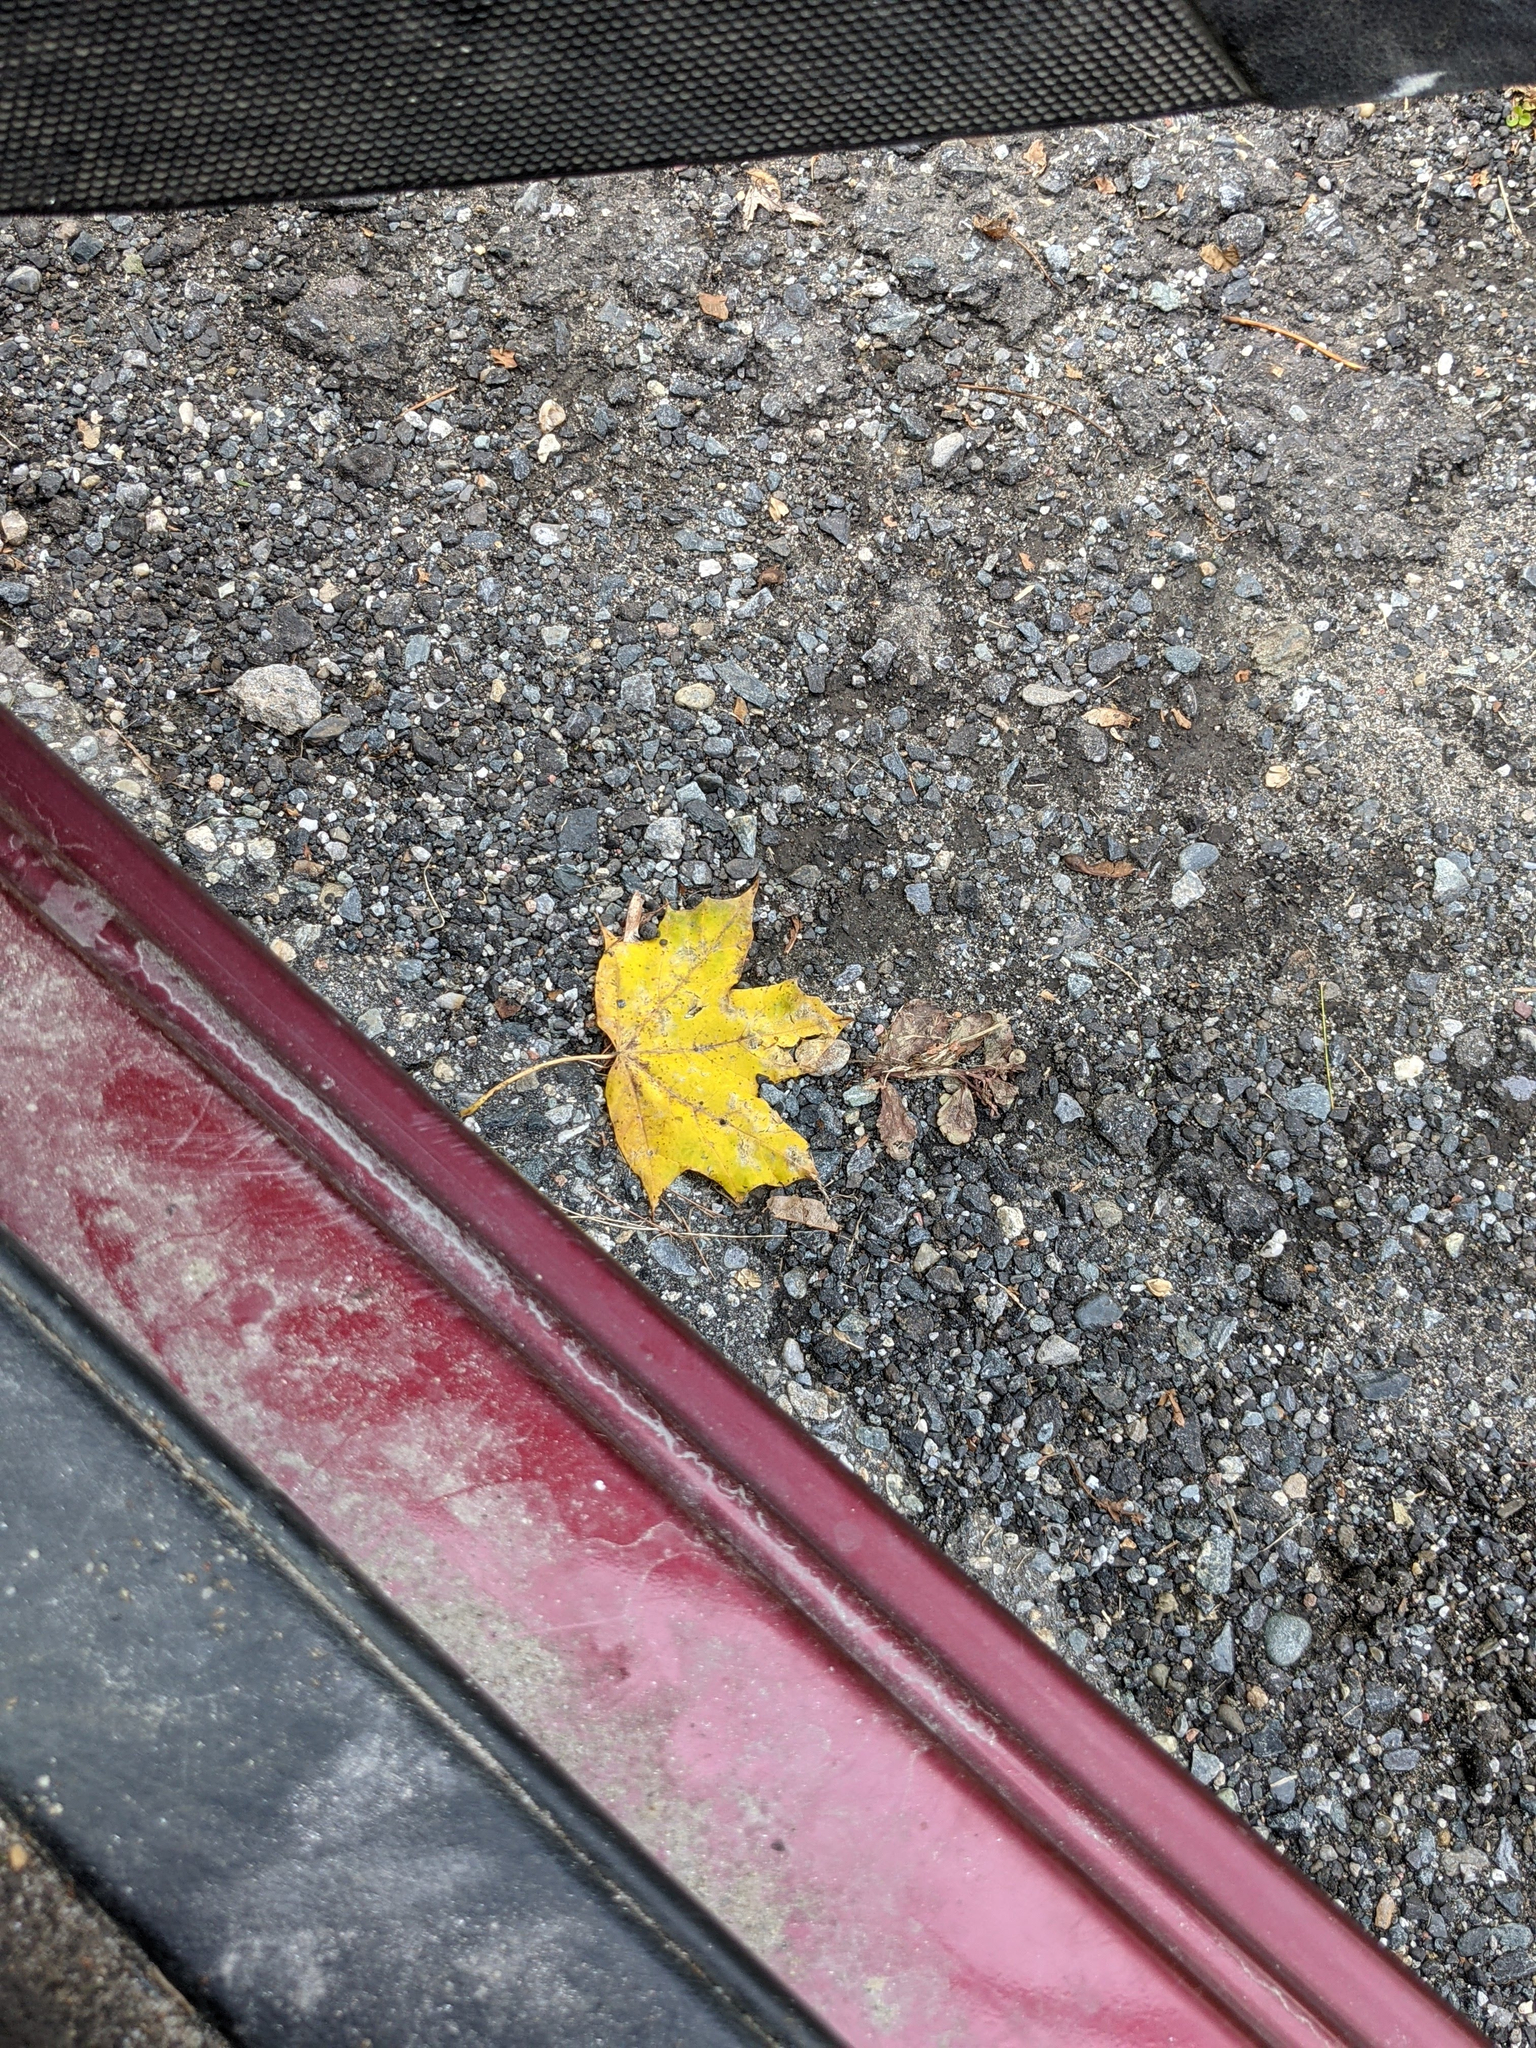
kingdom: Plantae
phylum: Tracheophyta
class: Magnoliopsida
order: Sapindales
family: Sapindaceae
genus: Acer
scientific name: Acer saccharum
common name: Sugar maple
